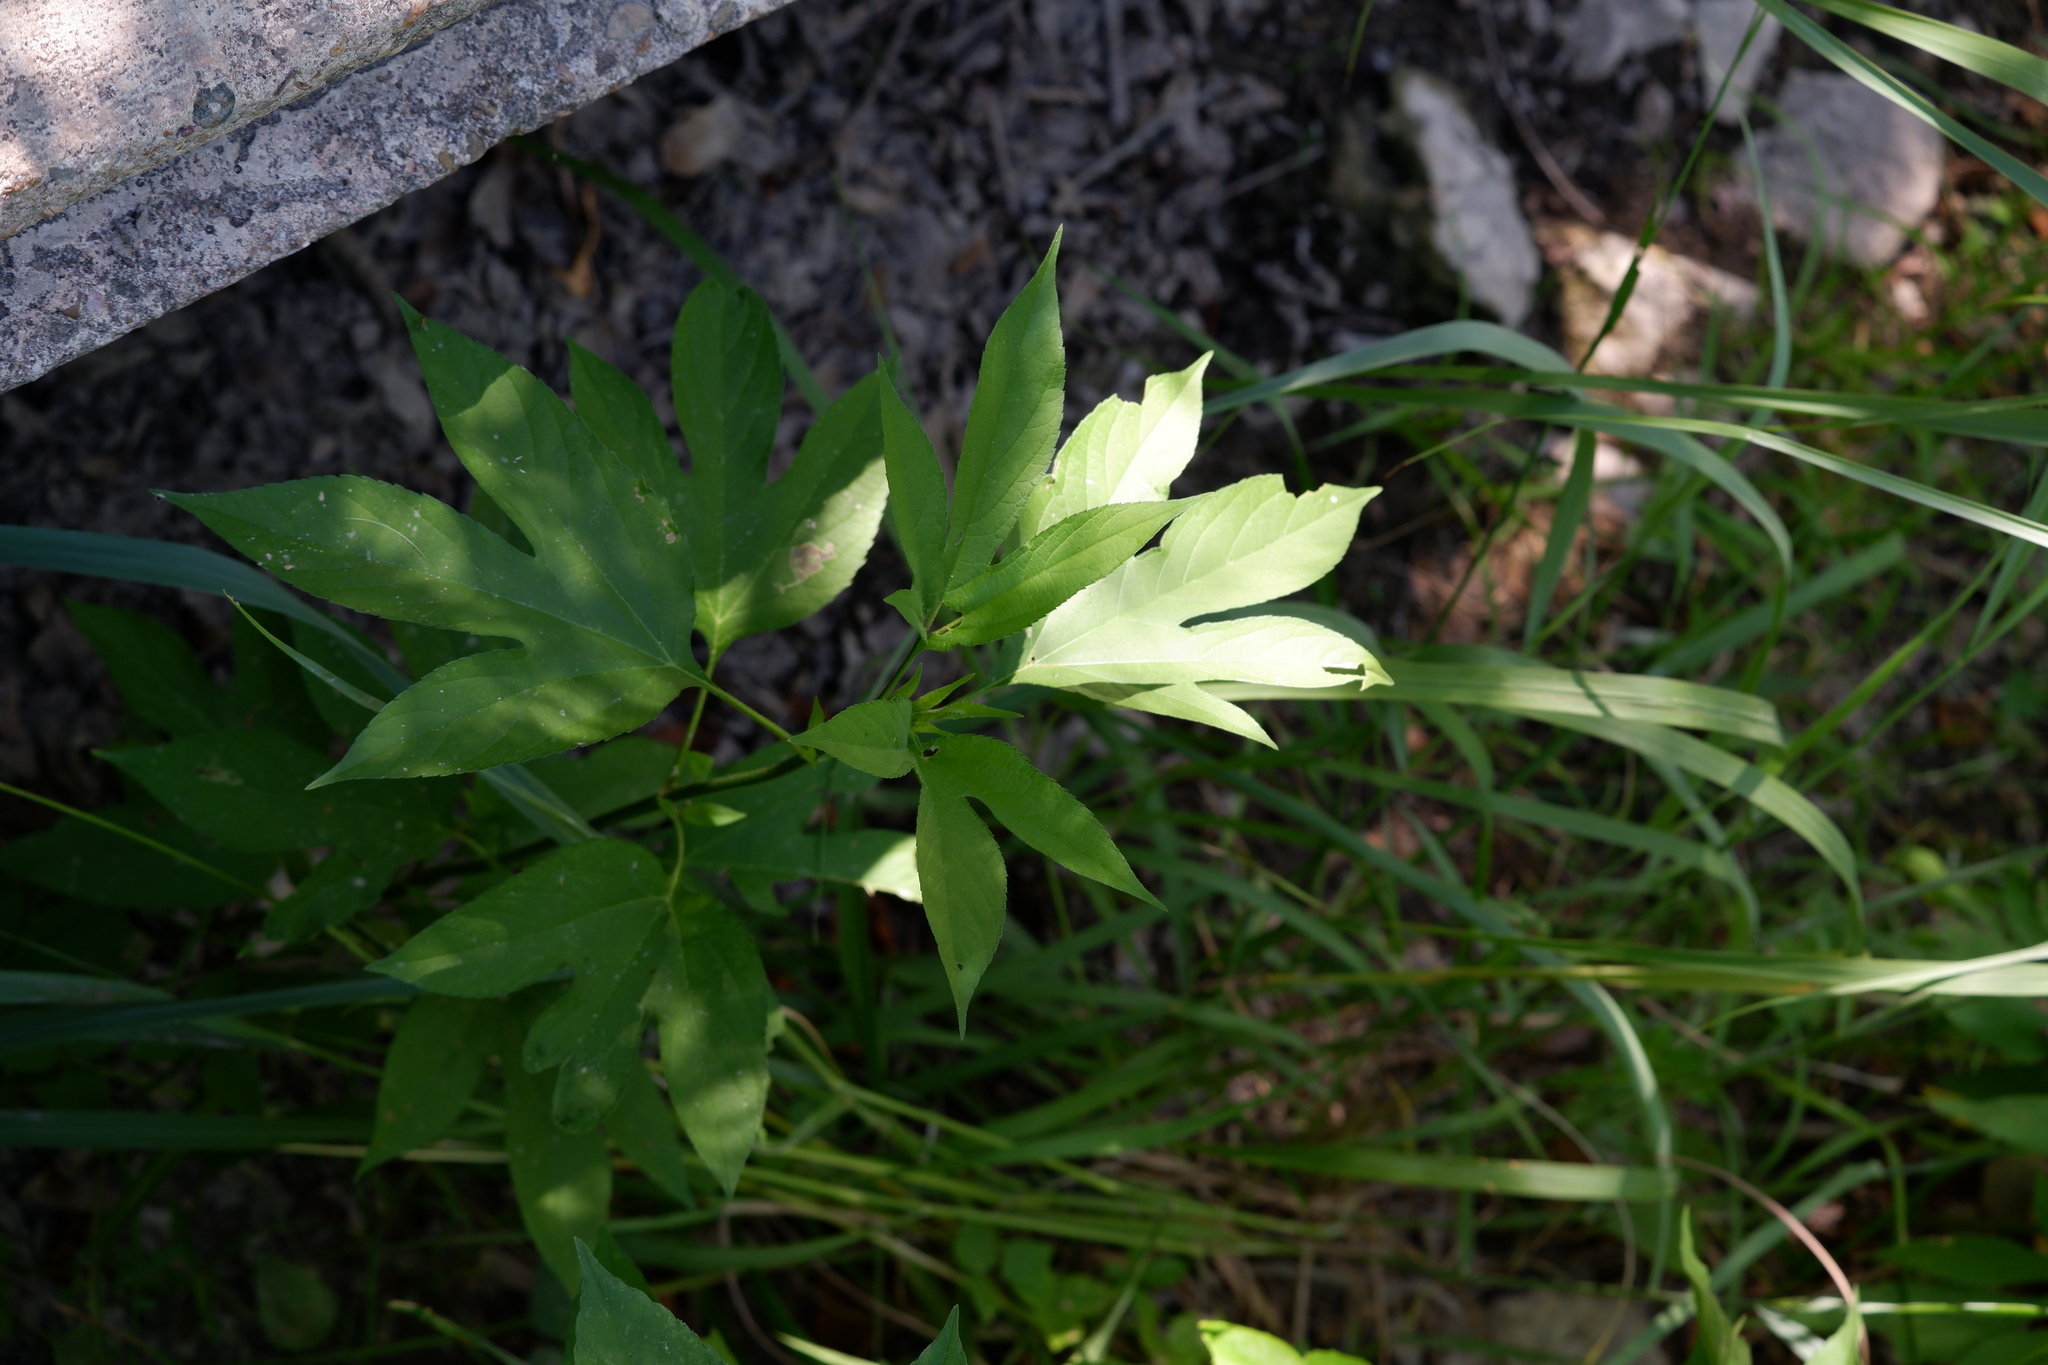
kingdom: Plantae
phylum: Tracheophyta
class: Magnoliopsida
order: Asterales
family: Asteraceae
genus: Ambrosia
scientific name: Ambrosia trifida
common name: Giant ragweed
